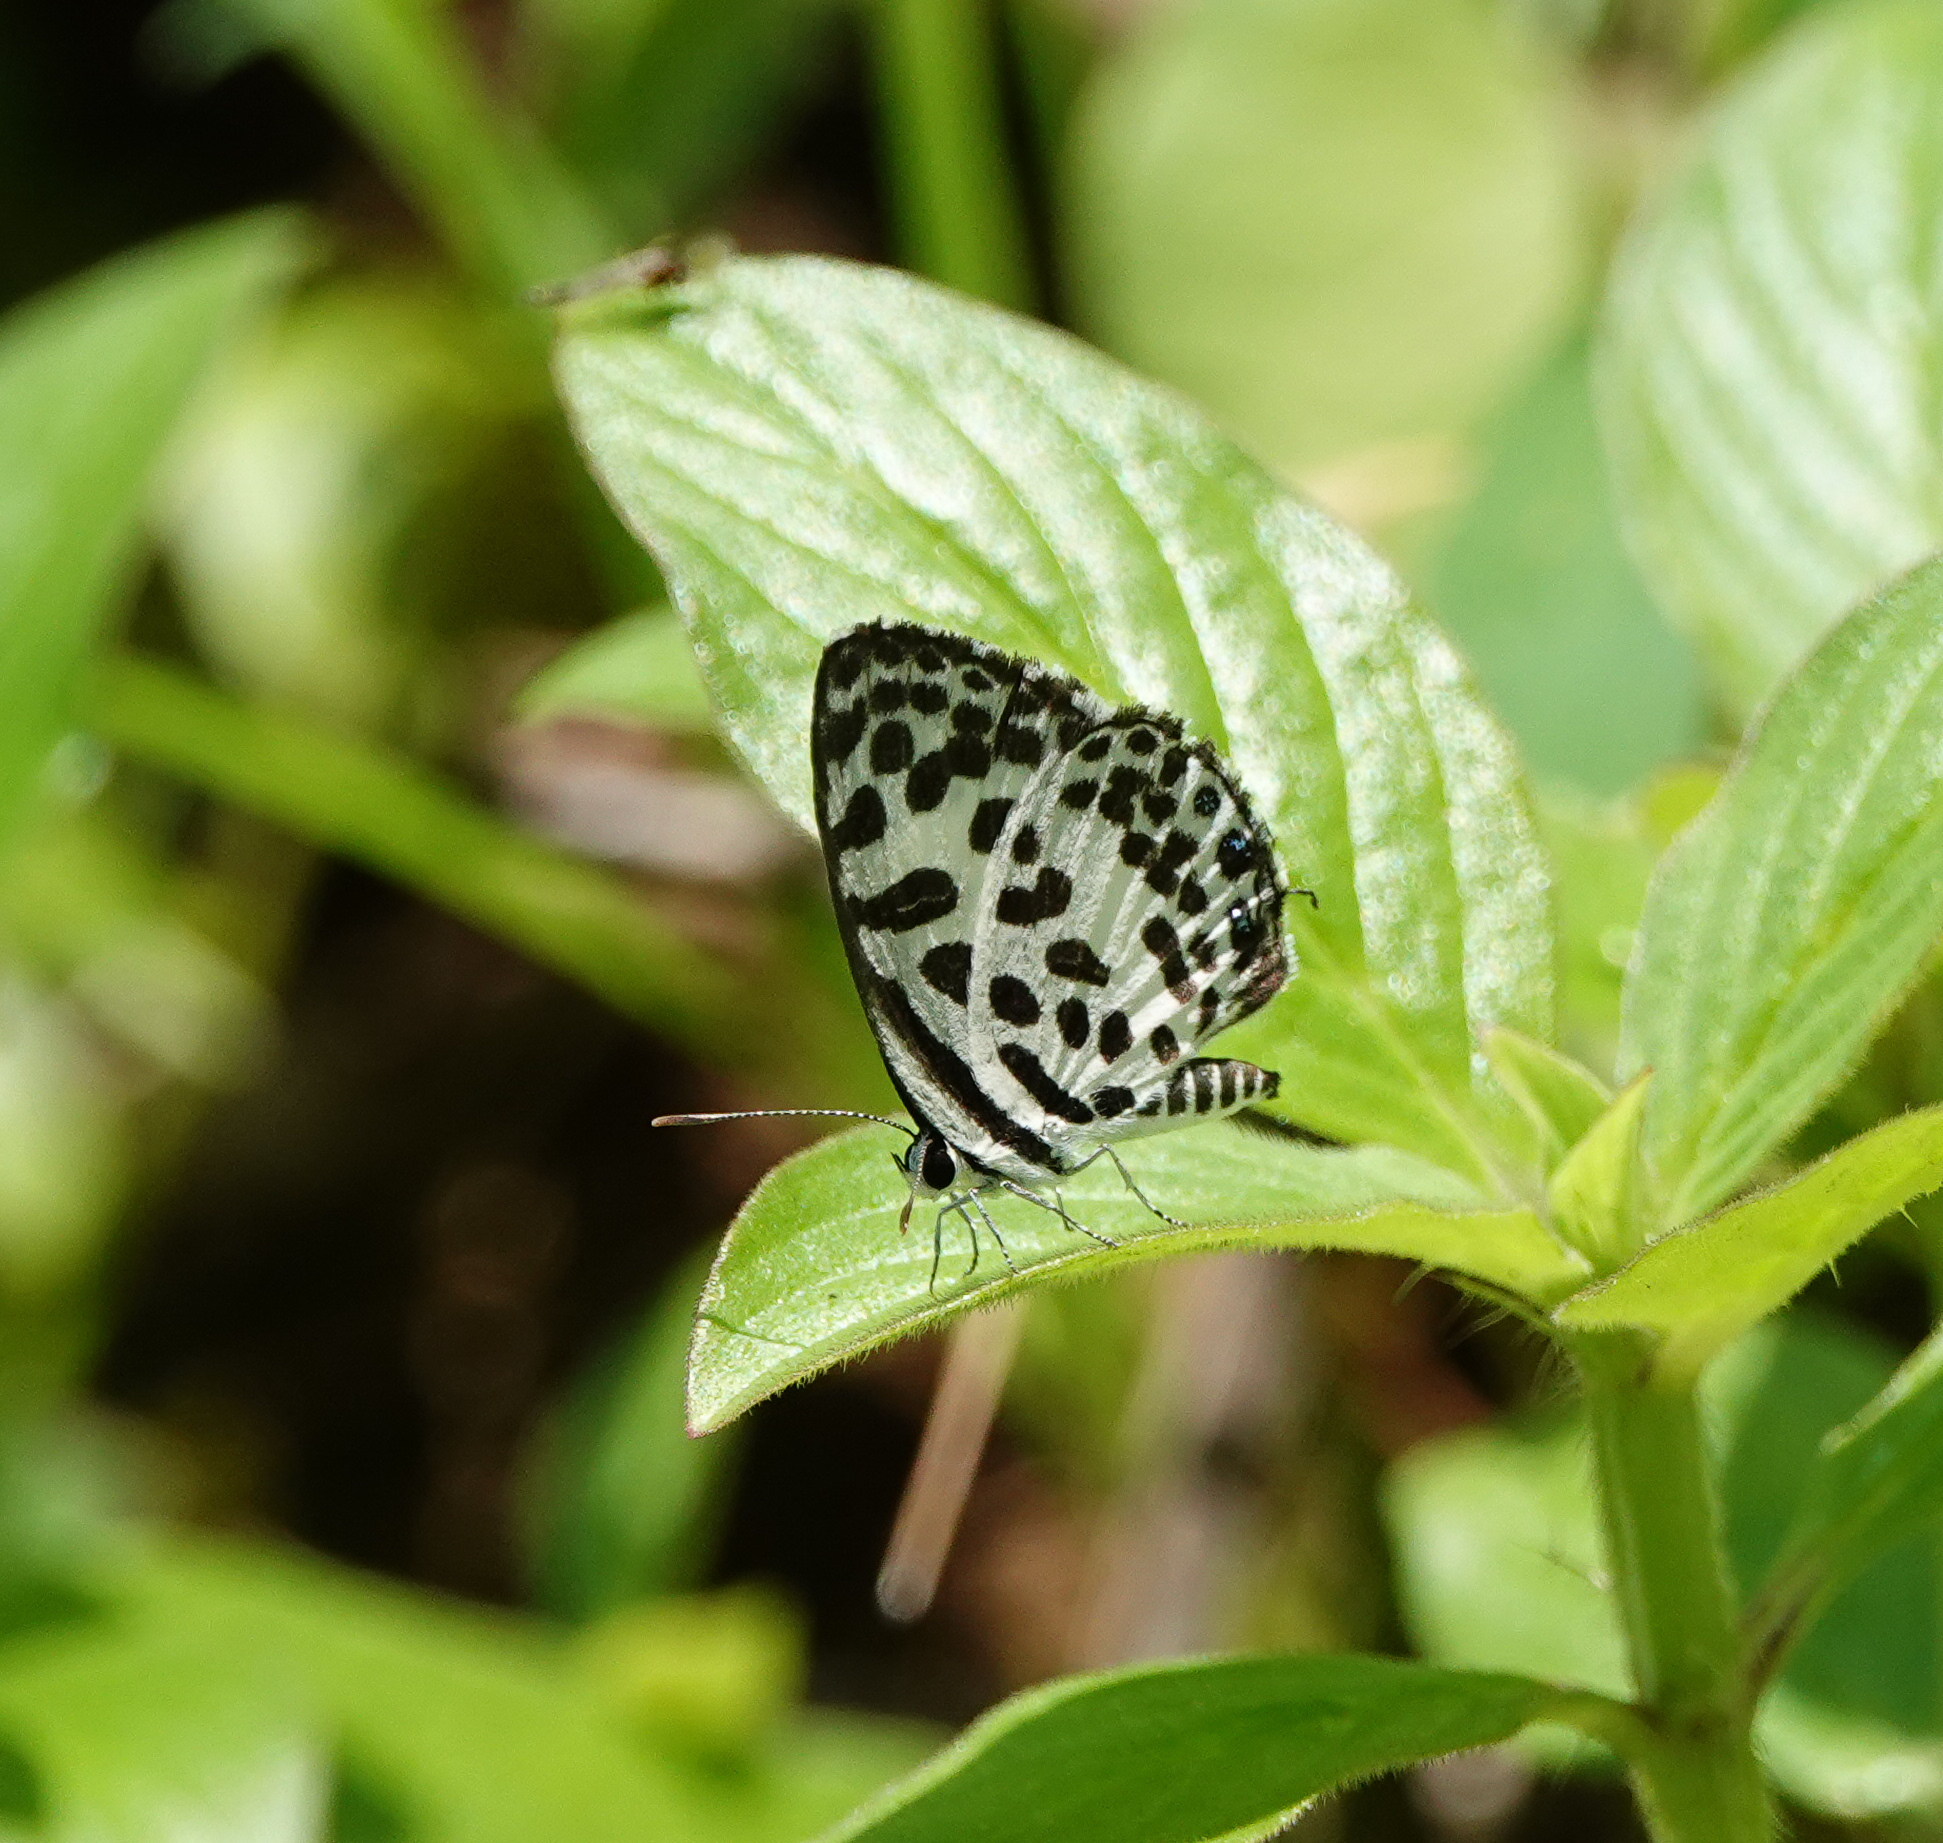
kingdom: Animalia
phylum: Arthropoda
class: Insecta
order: Lepidoptera
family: Lycaenidae
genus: Castalius
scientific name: Castalius rosimon
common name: Common pierrot
